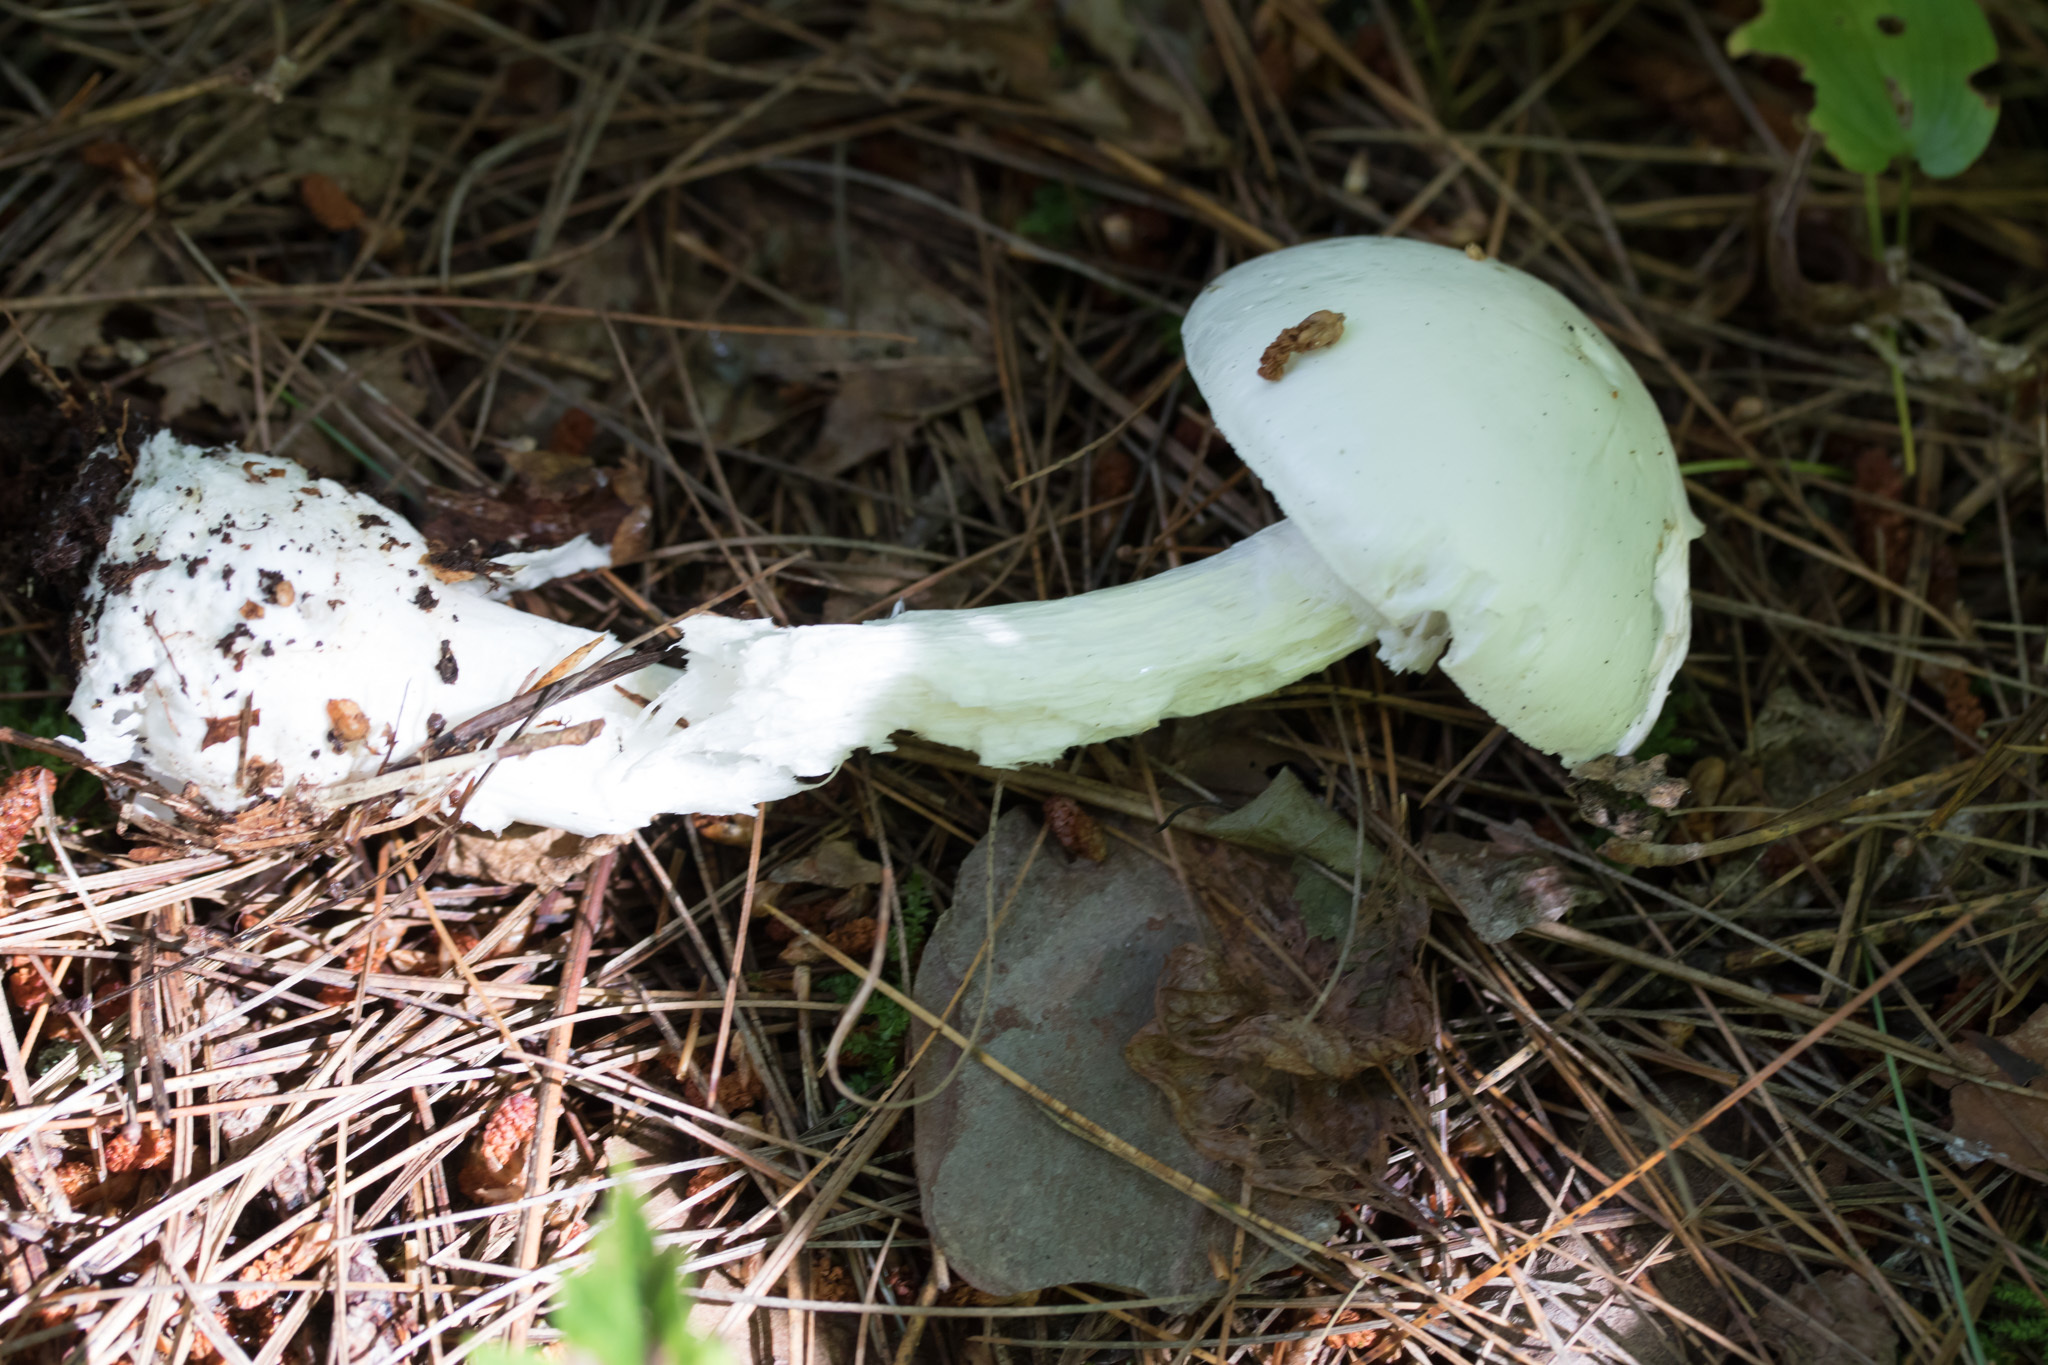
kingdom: Fungi
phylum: Basidiomycota
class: Agaricomycetes
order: Agaricales
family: Amanitaceae
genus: Amanita
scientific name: Amanita bisporigera
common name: Eastern north american destroying angel
